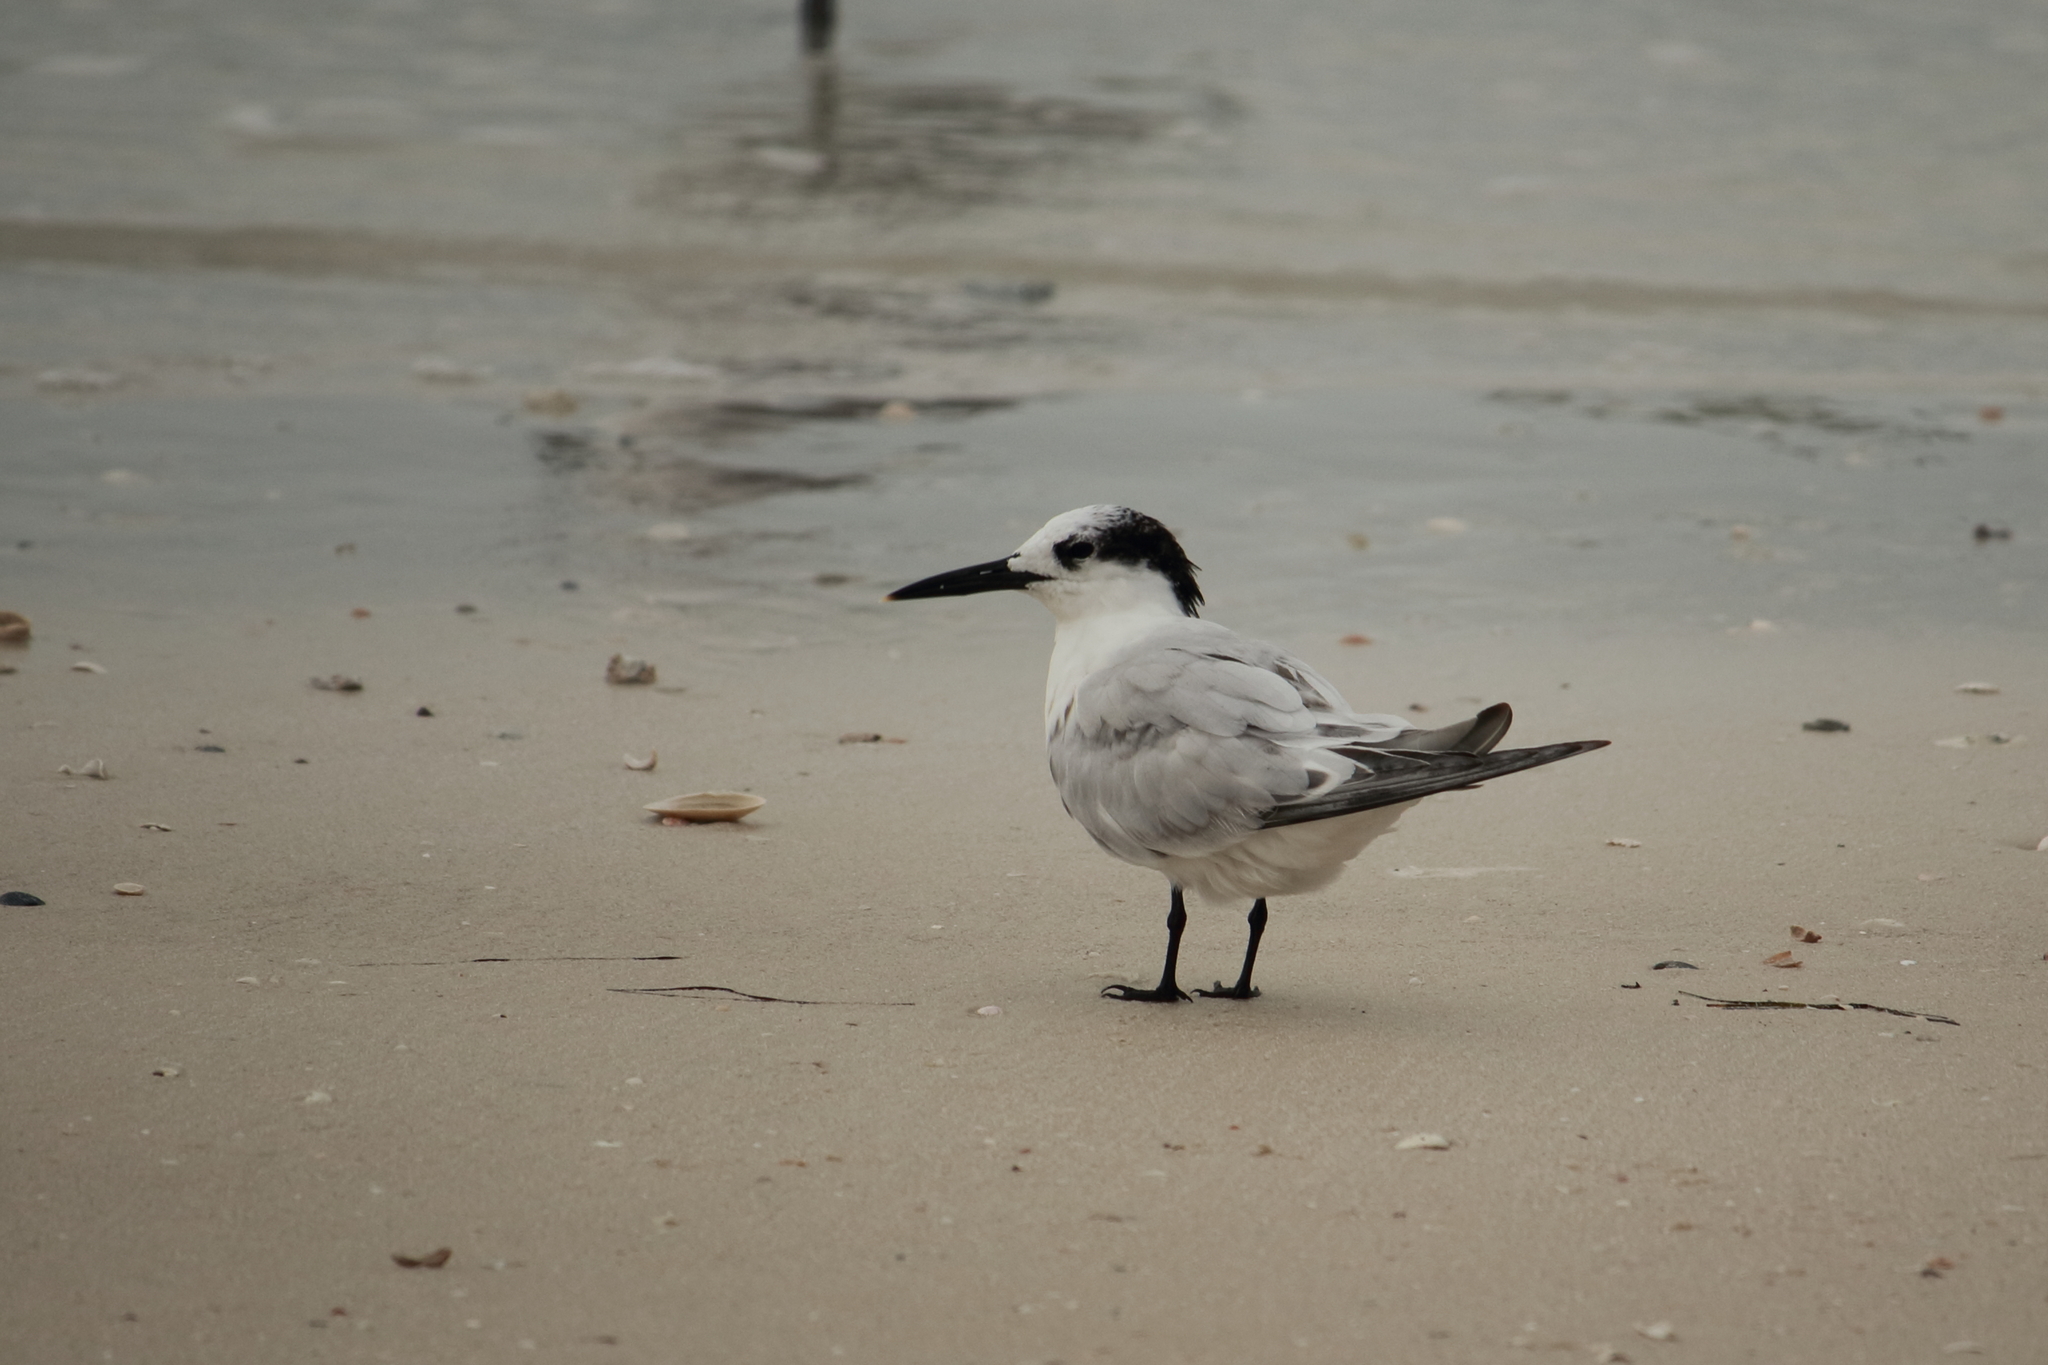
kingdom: Animalia
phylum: Chordata
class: Aves
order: Charadriiformes
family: Laridae
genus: Thalasseus
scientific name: Thalasseus sandvicensis
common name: Sandwich tern
